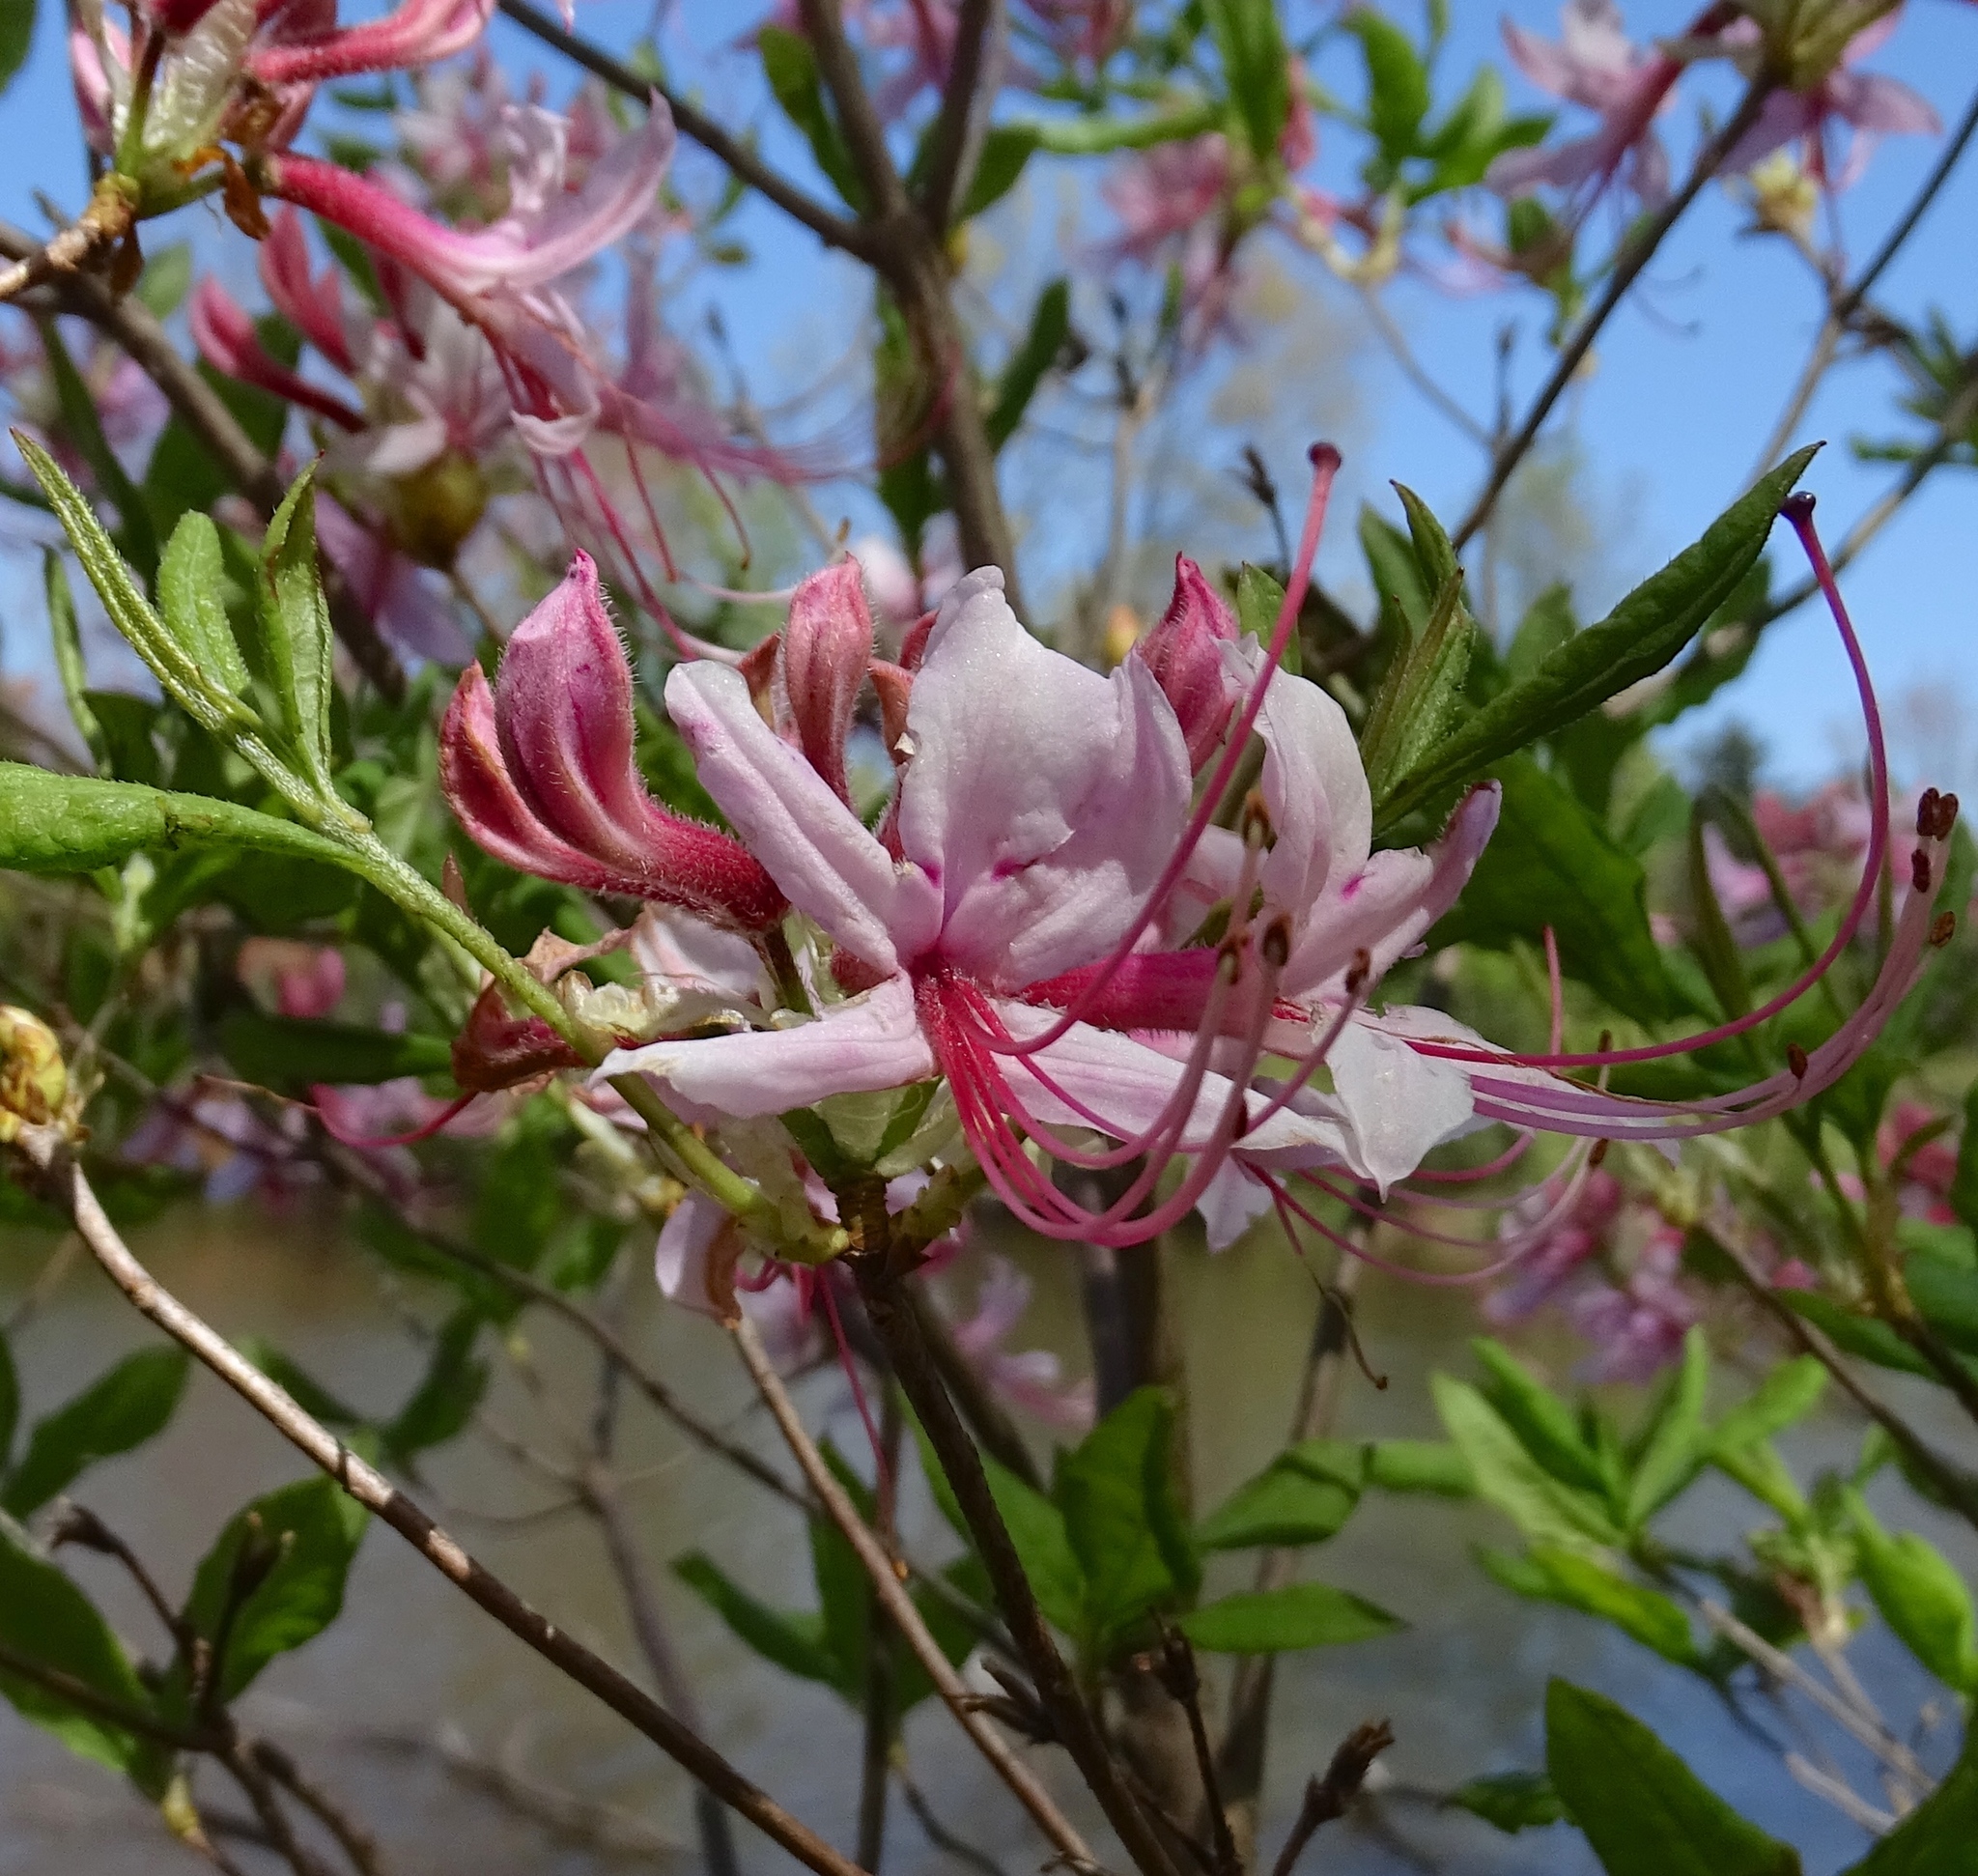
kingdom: Plantae
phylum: Tracheophyta
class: Magnoliopsida
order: Ericales
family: Ericaceae
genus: Rhododendron
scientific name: Rhododendron periclymenoides
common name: Election-pink
